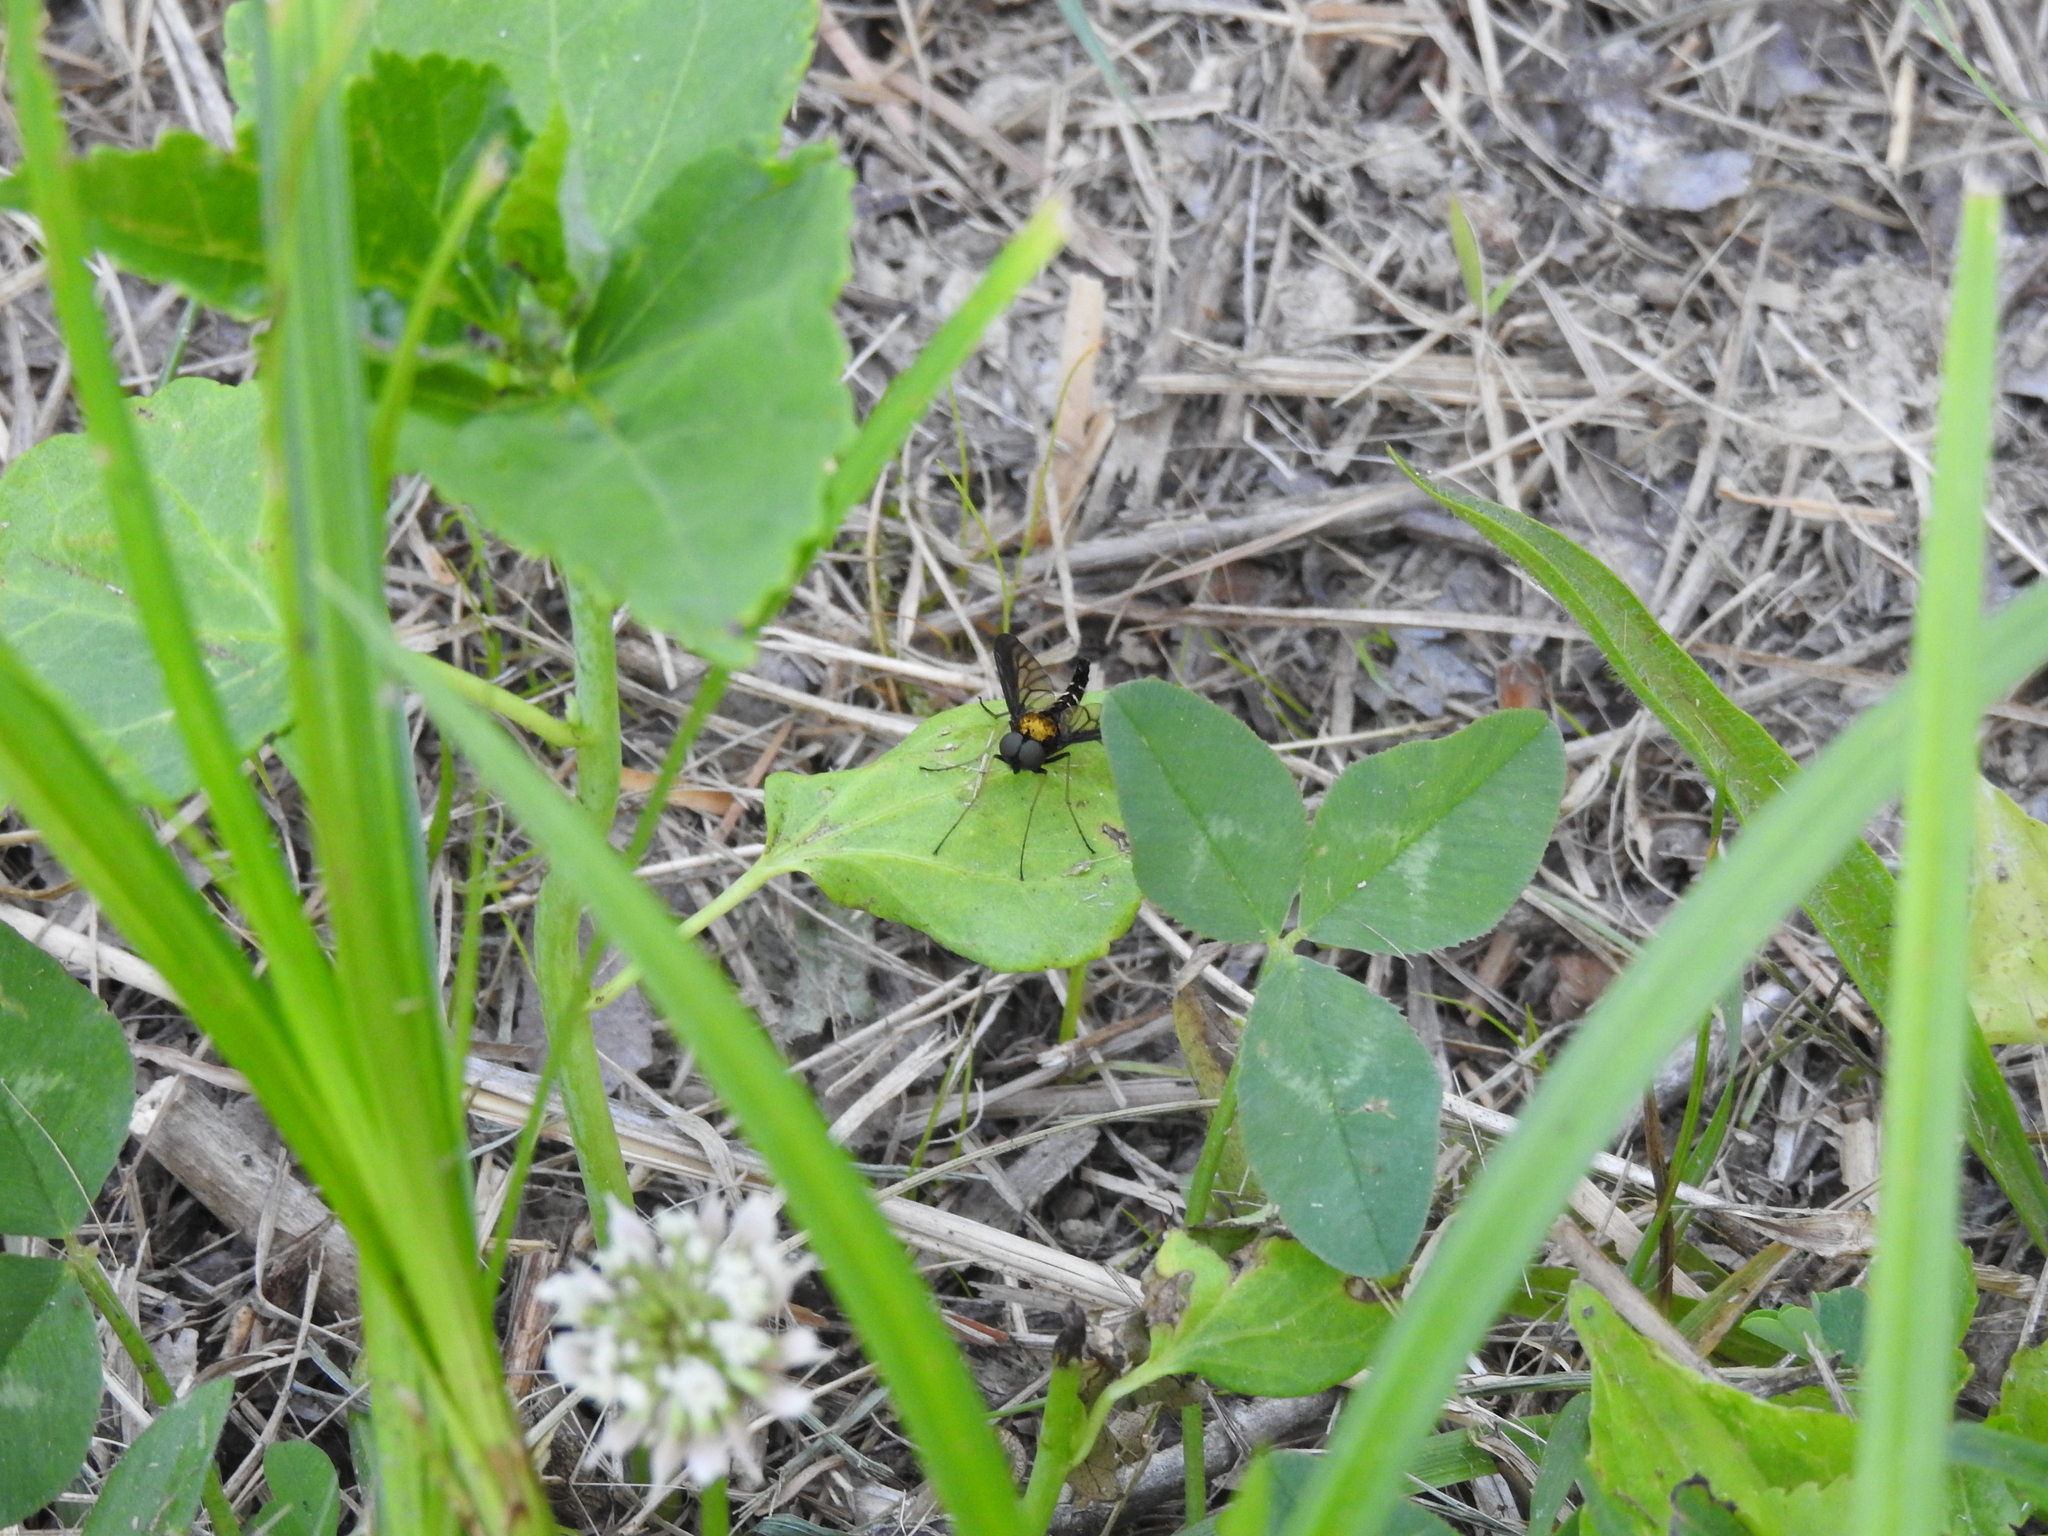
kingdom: Animalia
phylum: Arthropoda
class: Insecta
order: Diptera
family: Rhagionidae
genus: Chrysopilus
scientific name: Chrysopilus thoracicus
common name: Golden-backed snipe fly
